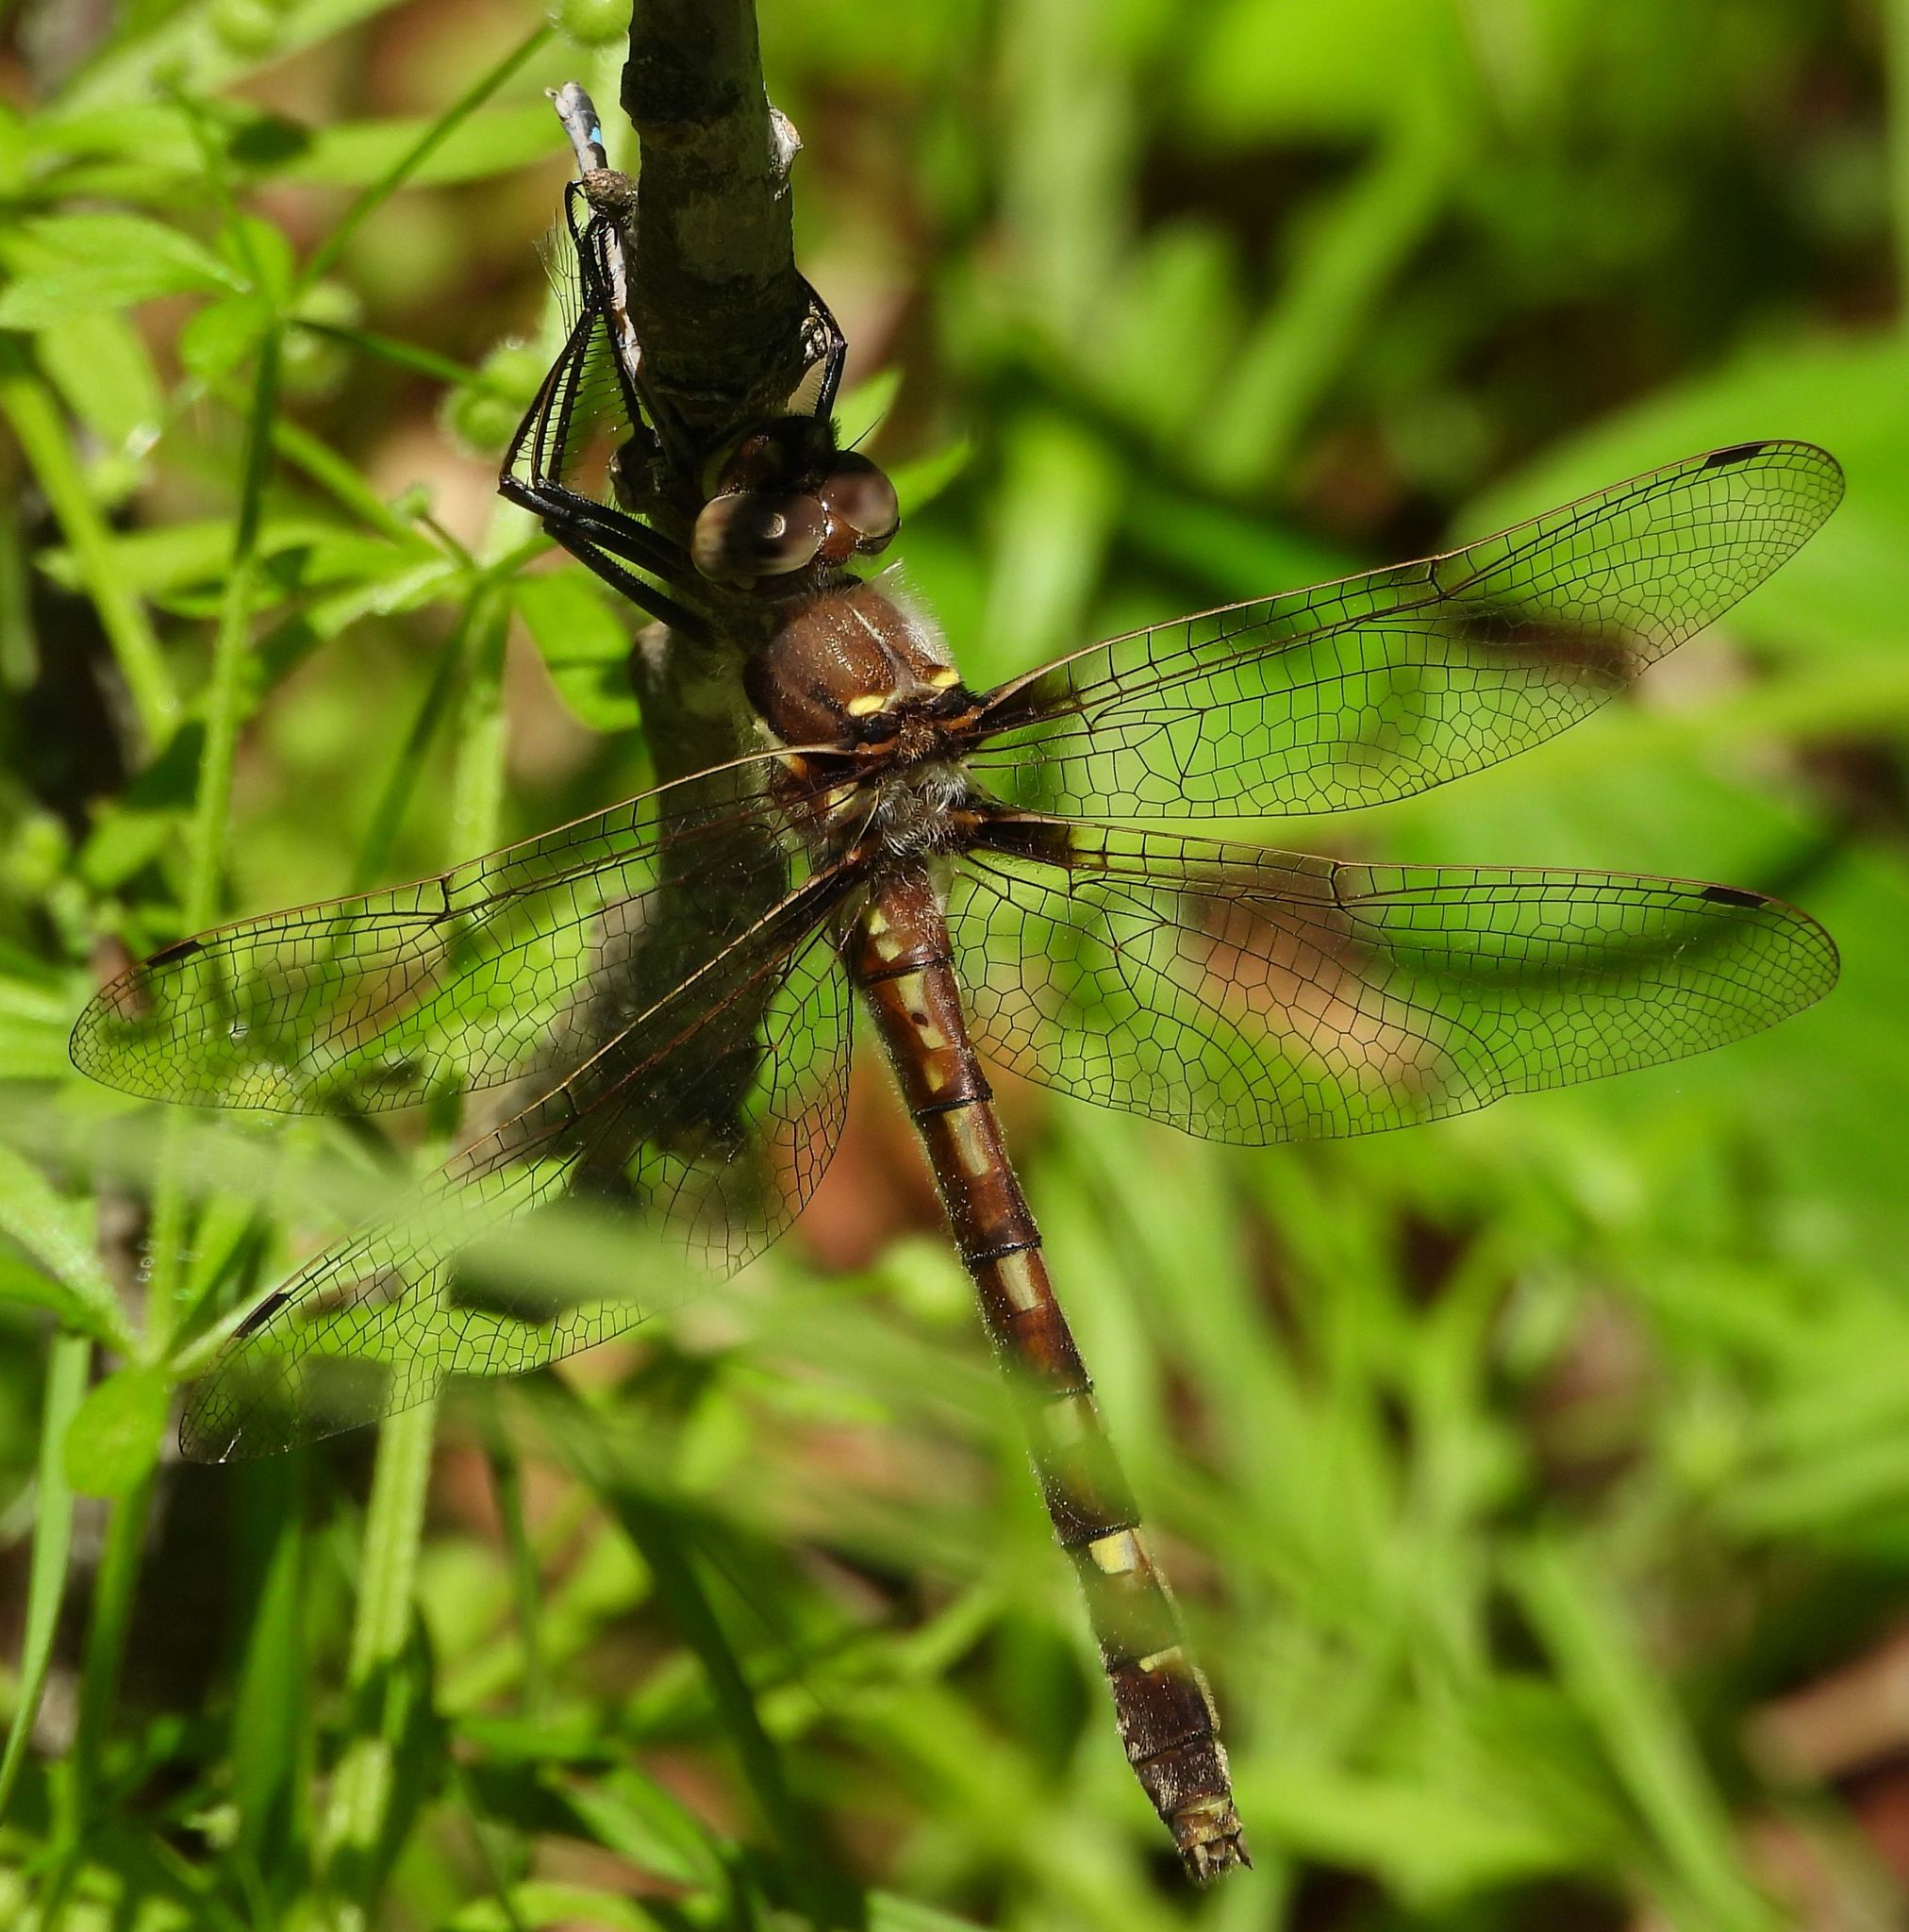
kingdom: Animalia
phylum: Arthropoda
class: Insecta
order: Odonata
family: Macromiidae
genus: Didymops
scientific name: Didymops transversa
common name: Stream cruiser
